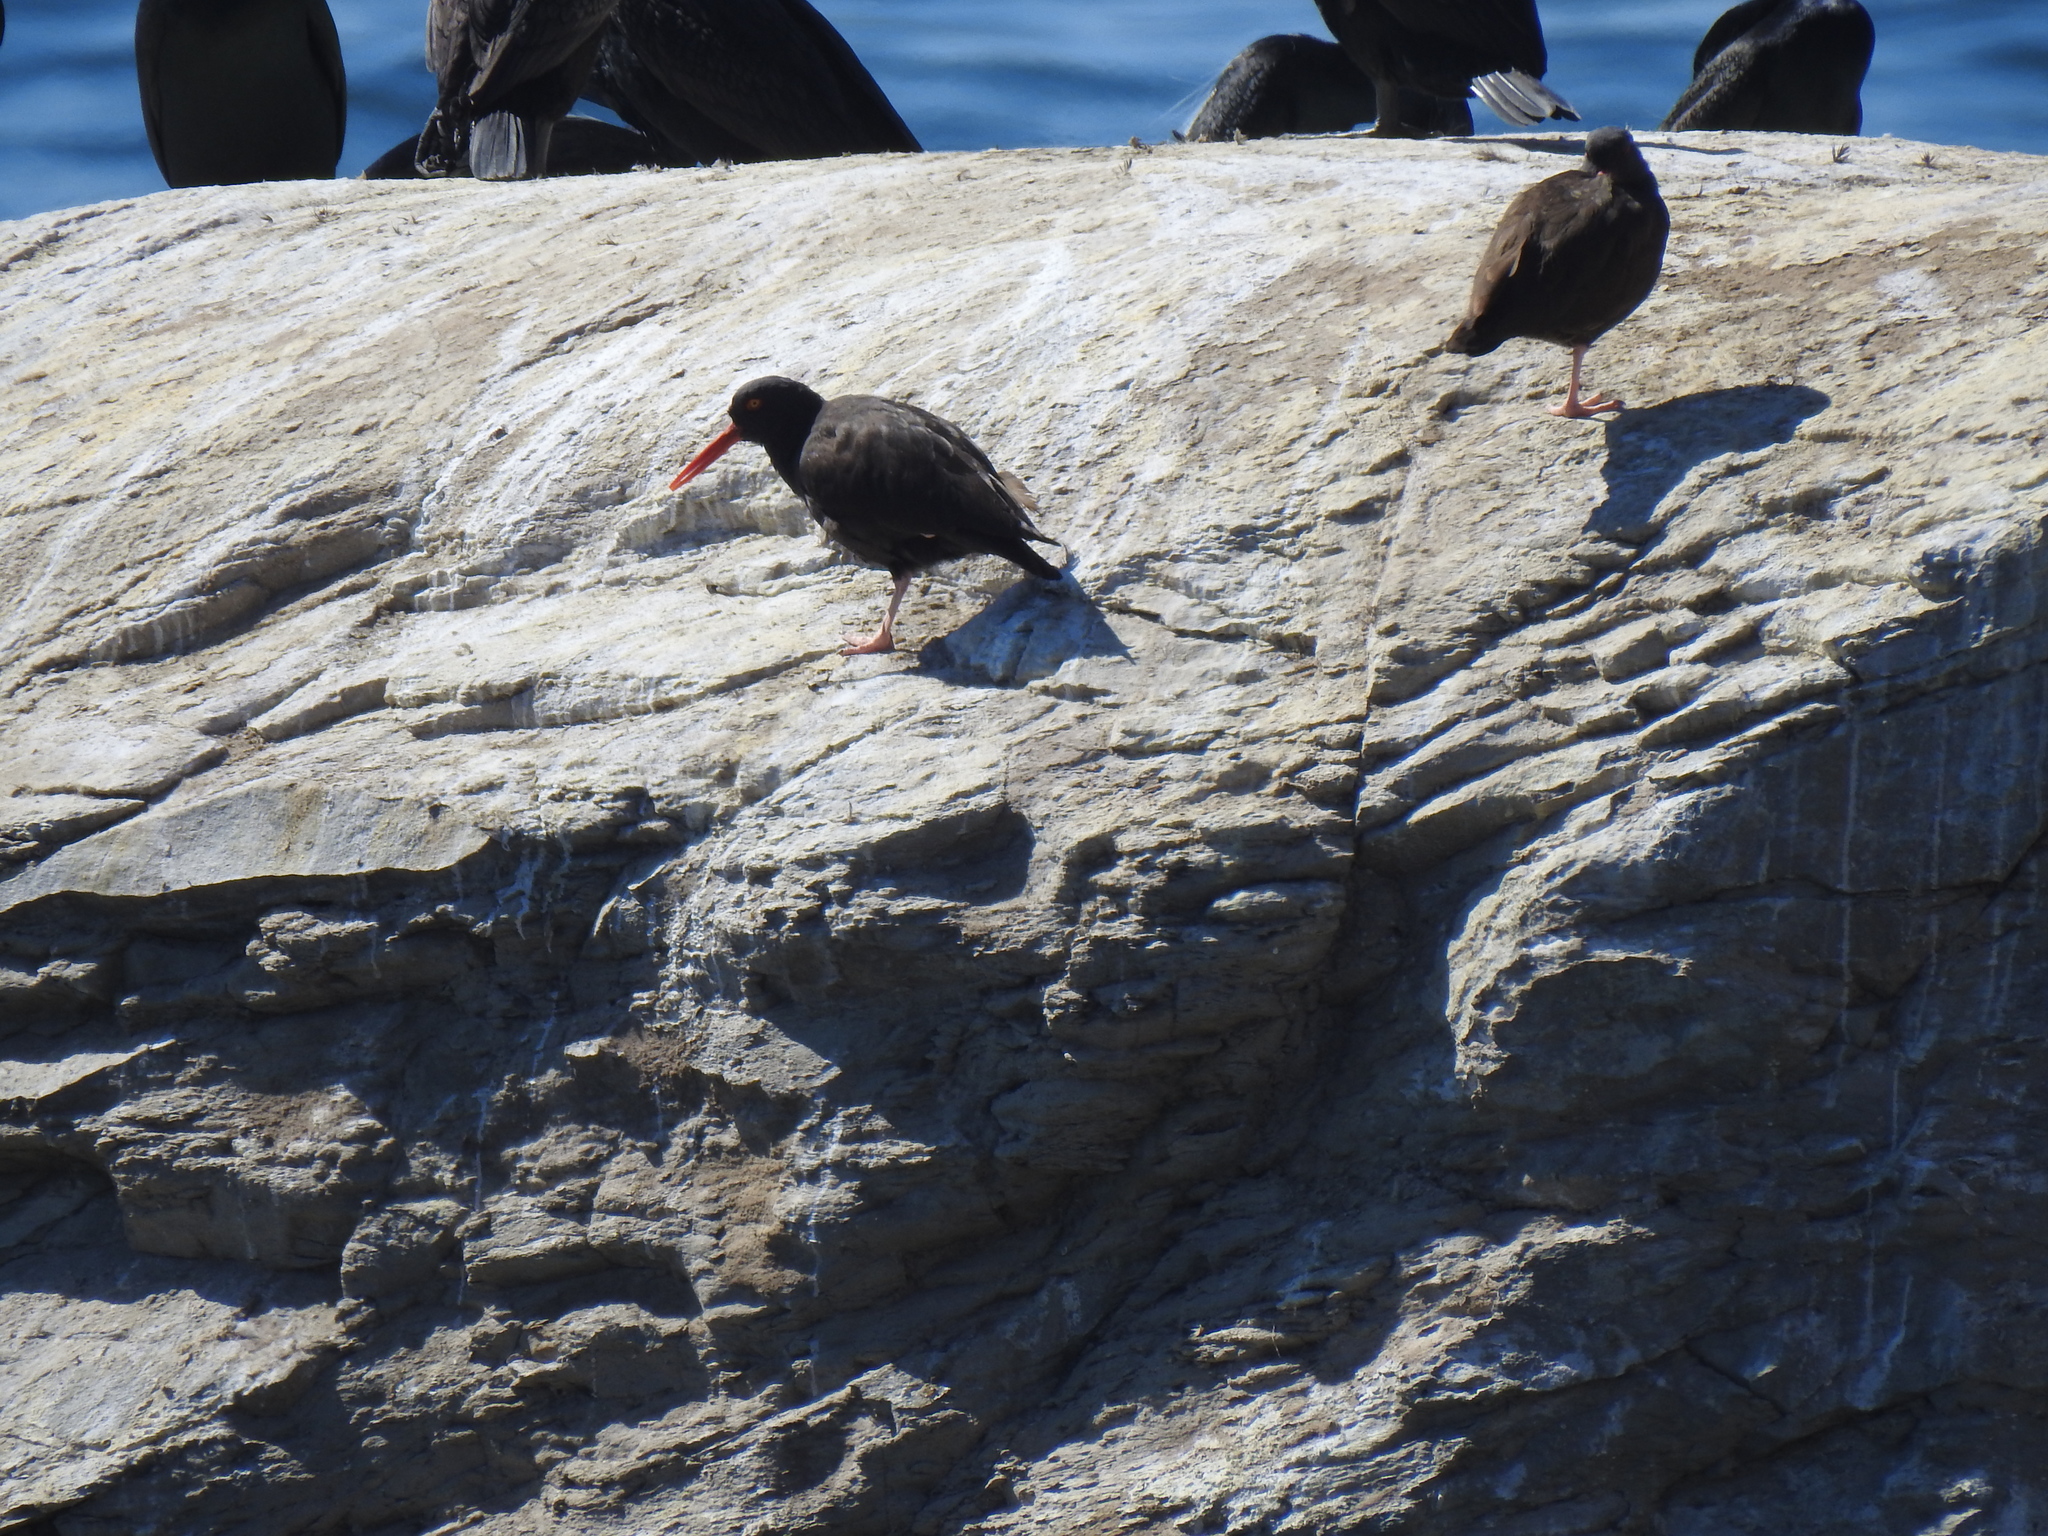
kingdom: Animalia
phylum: Chordata
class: Aves
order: Charadriiformes
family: Haematopodidae
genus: Haematopus
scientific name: Haematopus bachmani
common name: Black oystercatcher
